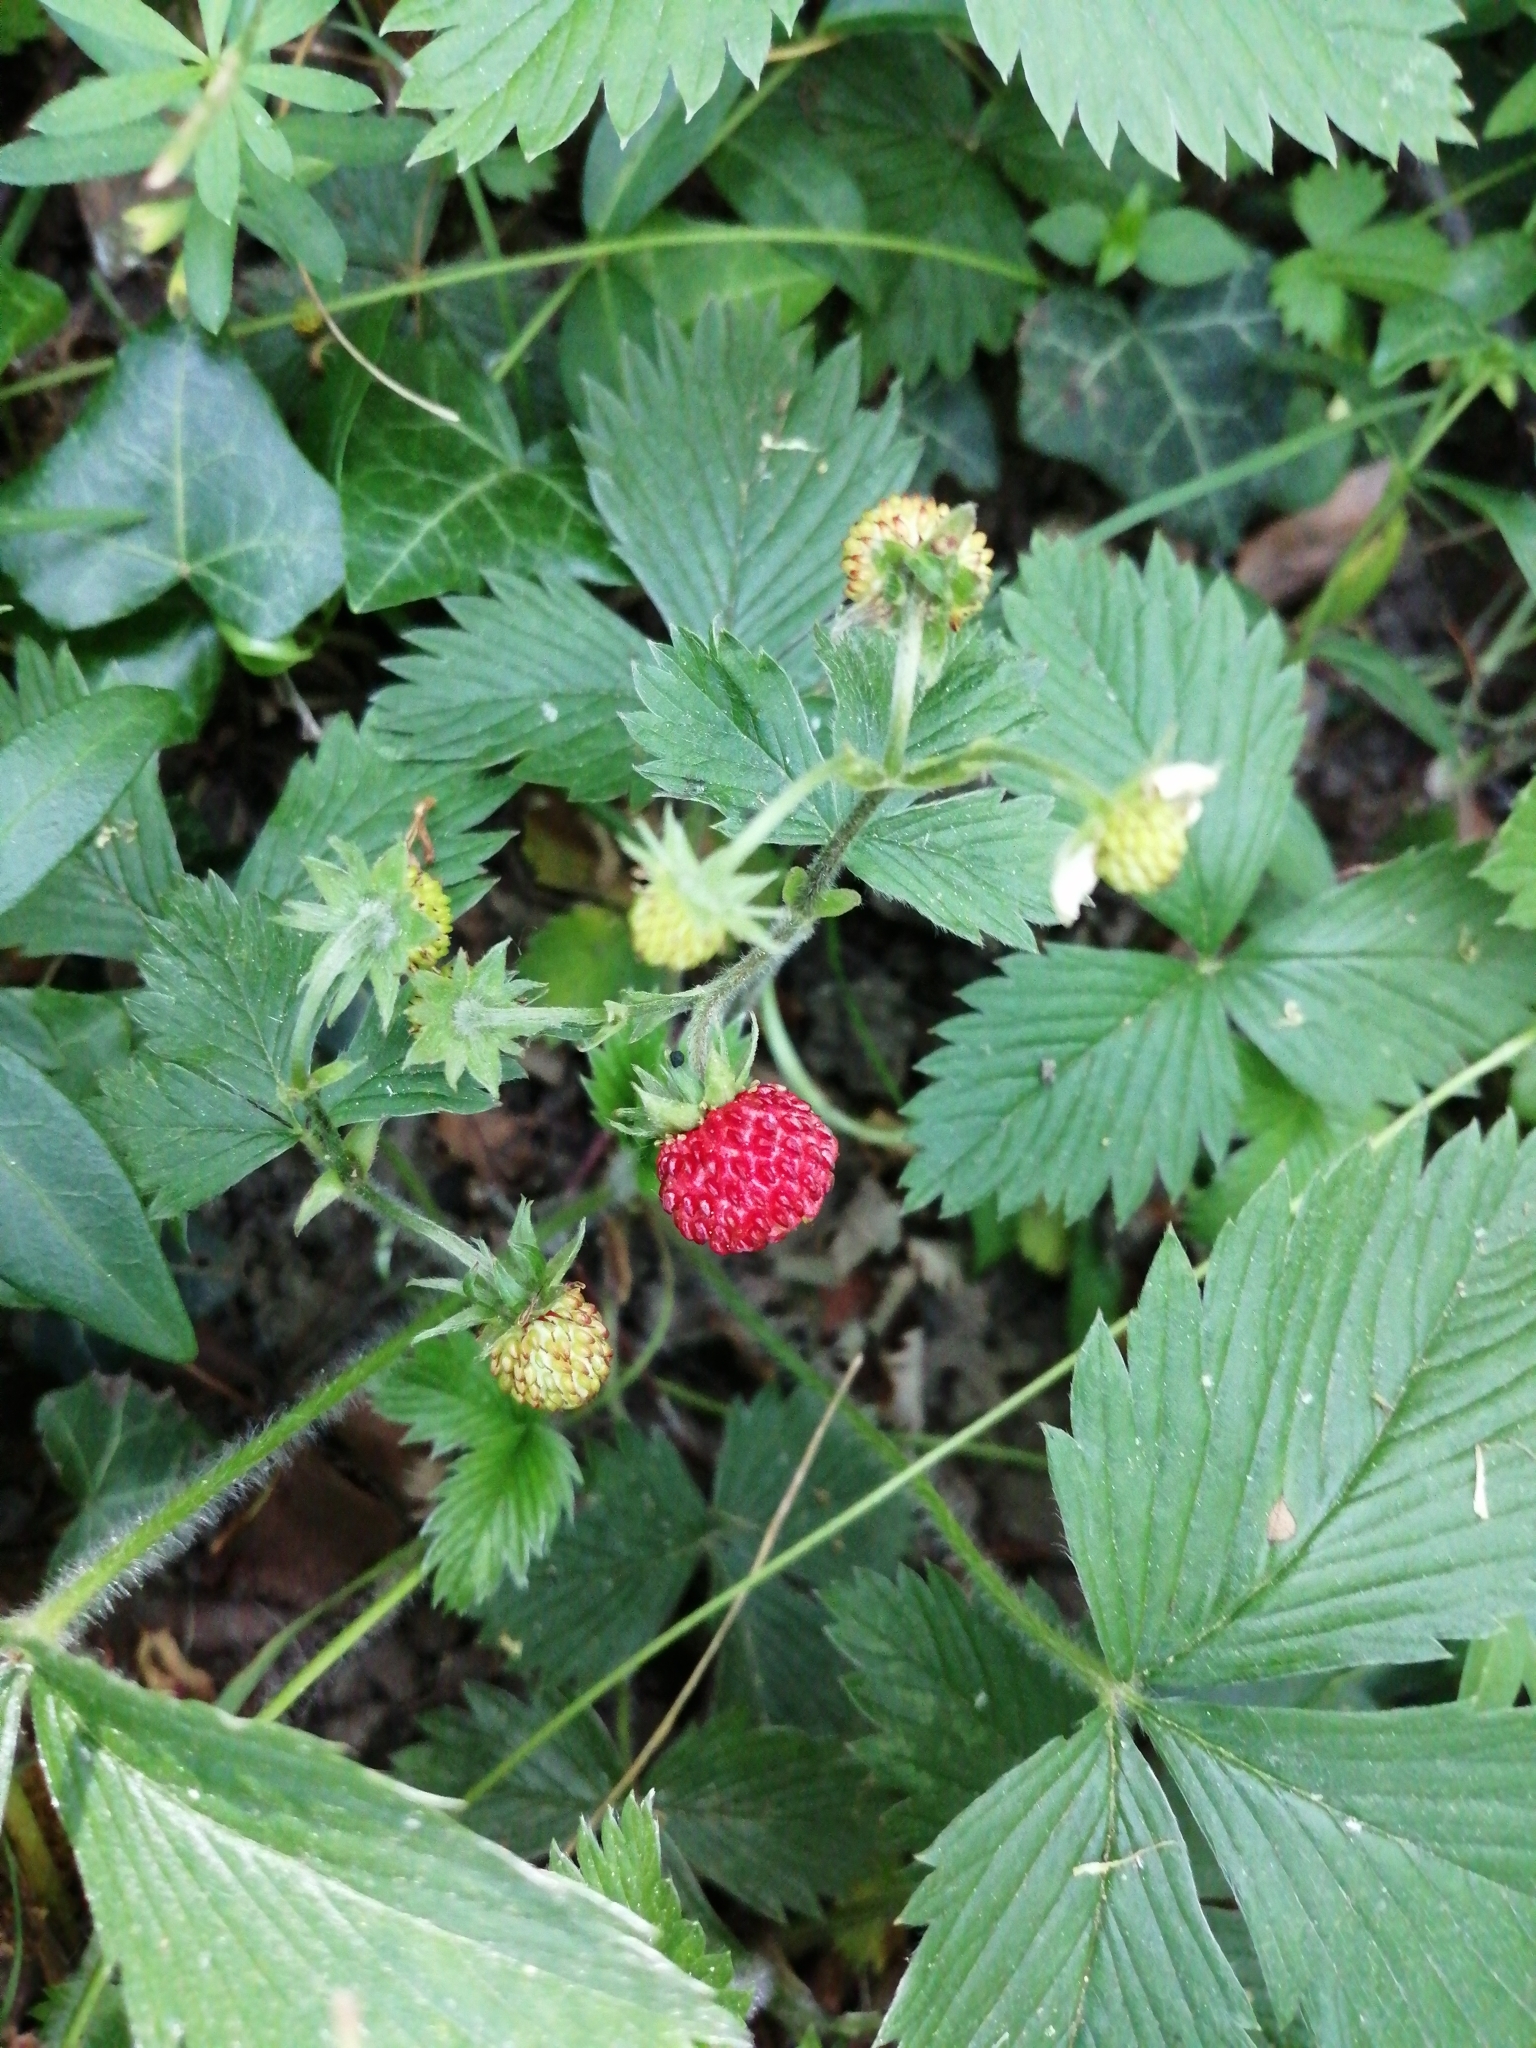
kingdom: Plantae
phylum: Tracheophyta
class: Magnoliopsida
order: Rosales
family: Rosaceae
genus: Fragaria
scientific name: Fragaria vesca
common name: Wild strawberry
